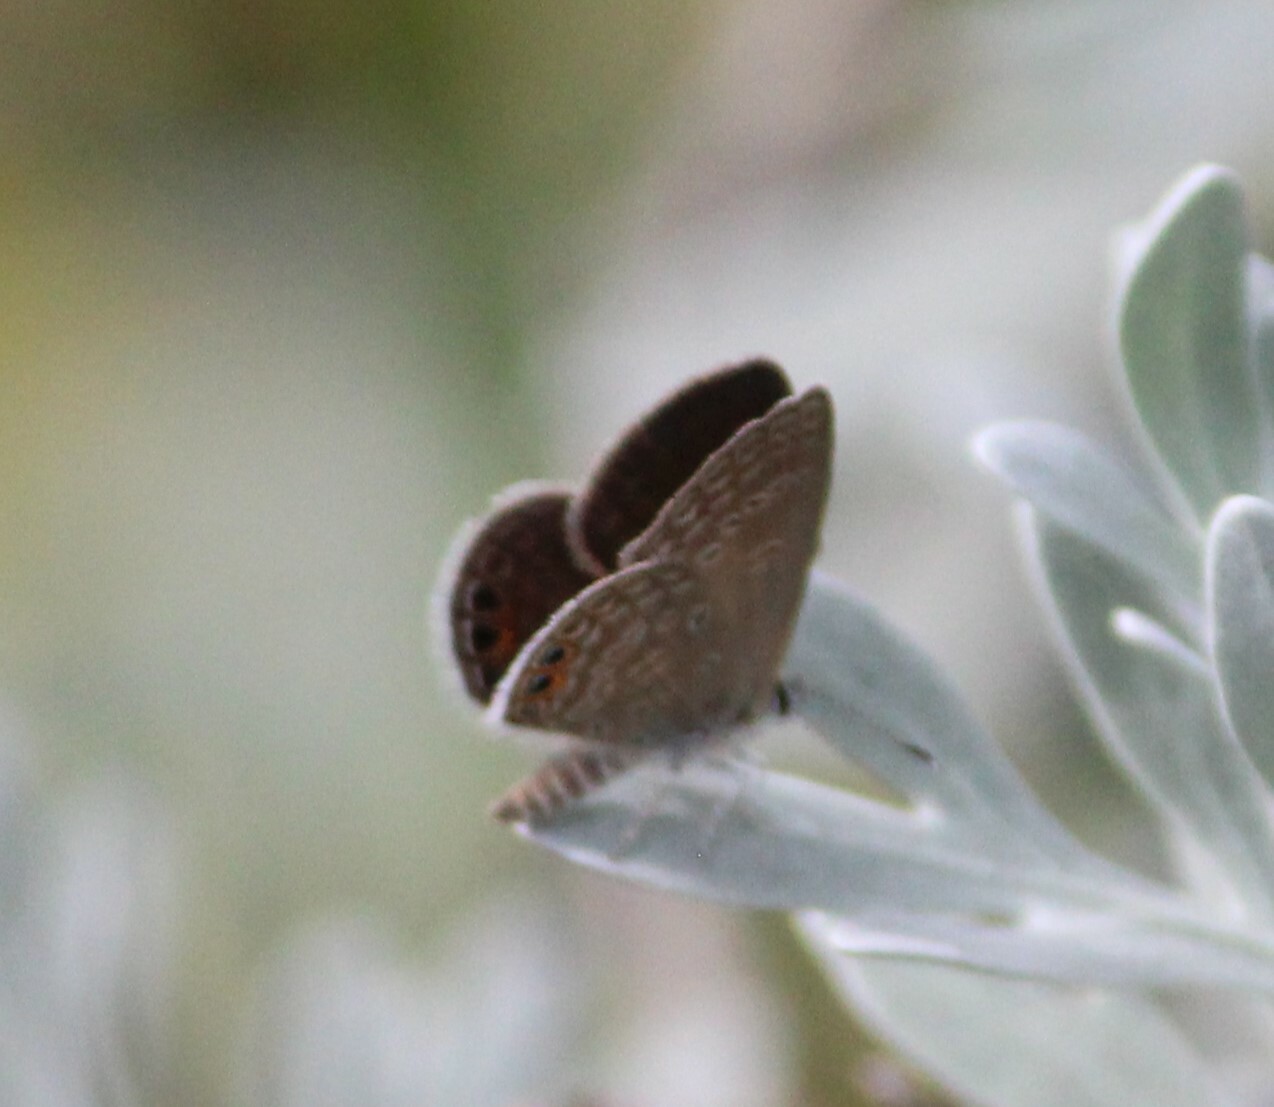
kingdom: Animalia
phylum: Arthropoda
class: Insecta
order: Lepidoptera
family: Lycaenidae
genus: Freyeria
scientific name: Freyeria trochylus
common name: Grass jewel
